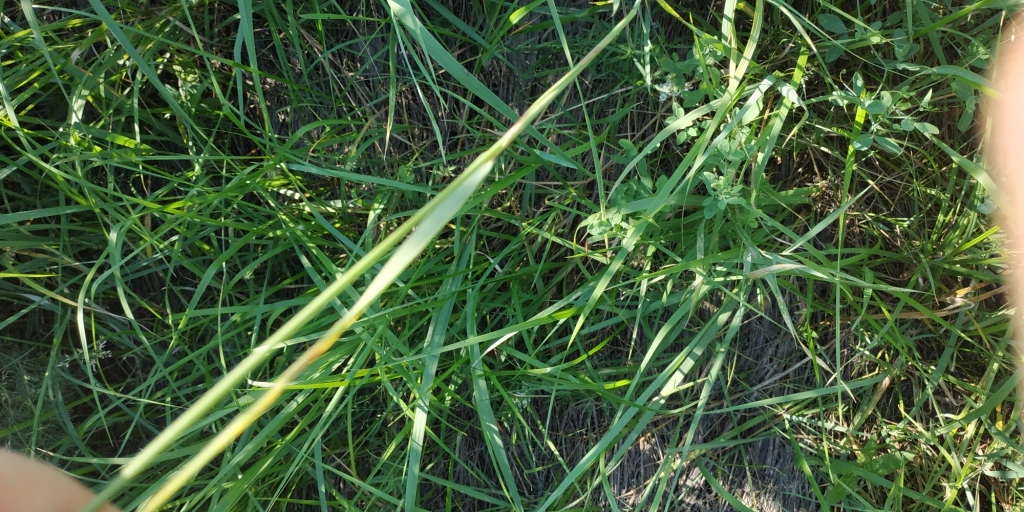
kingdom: Plantae
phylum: Tracheophyta
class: Liliopsida
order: Poales
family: Poaceae
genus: Calamagrostis
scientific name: Calamagrostis epigejos
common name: Wood small-reed
